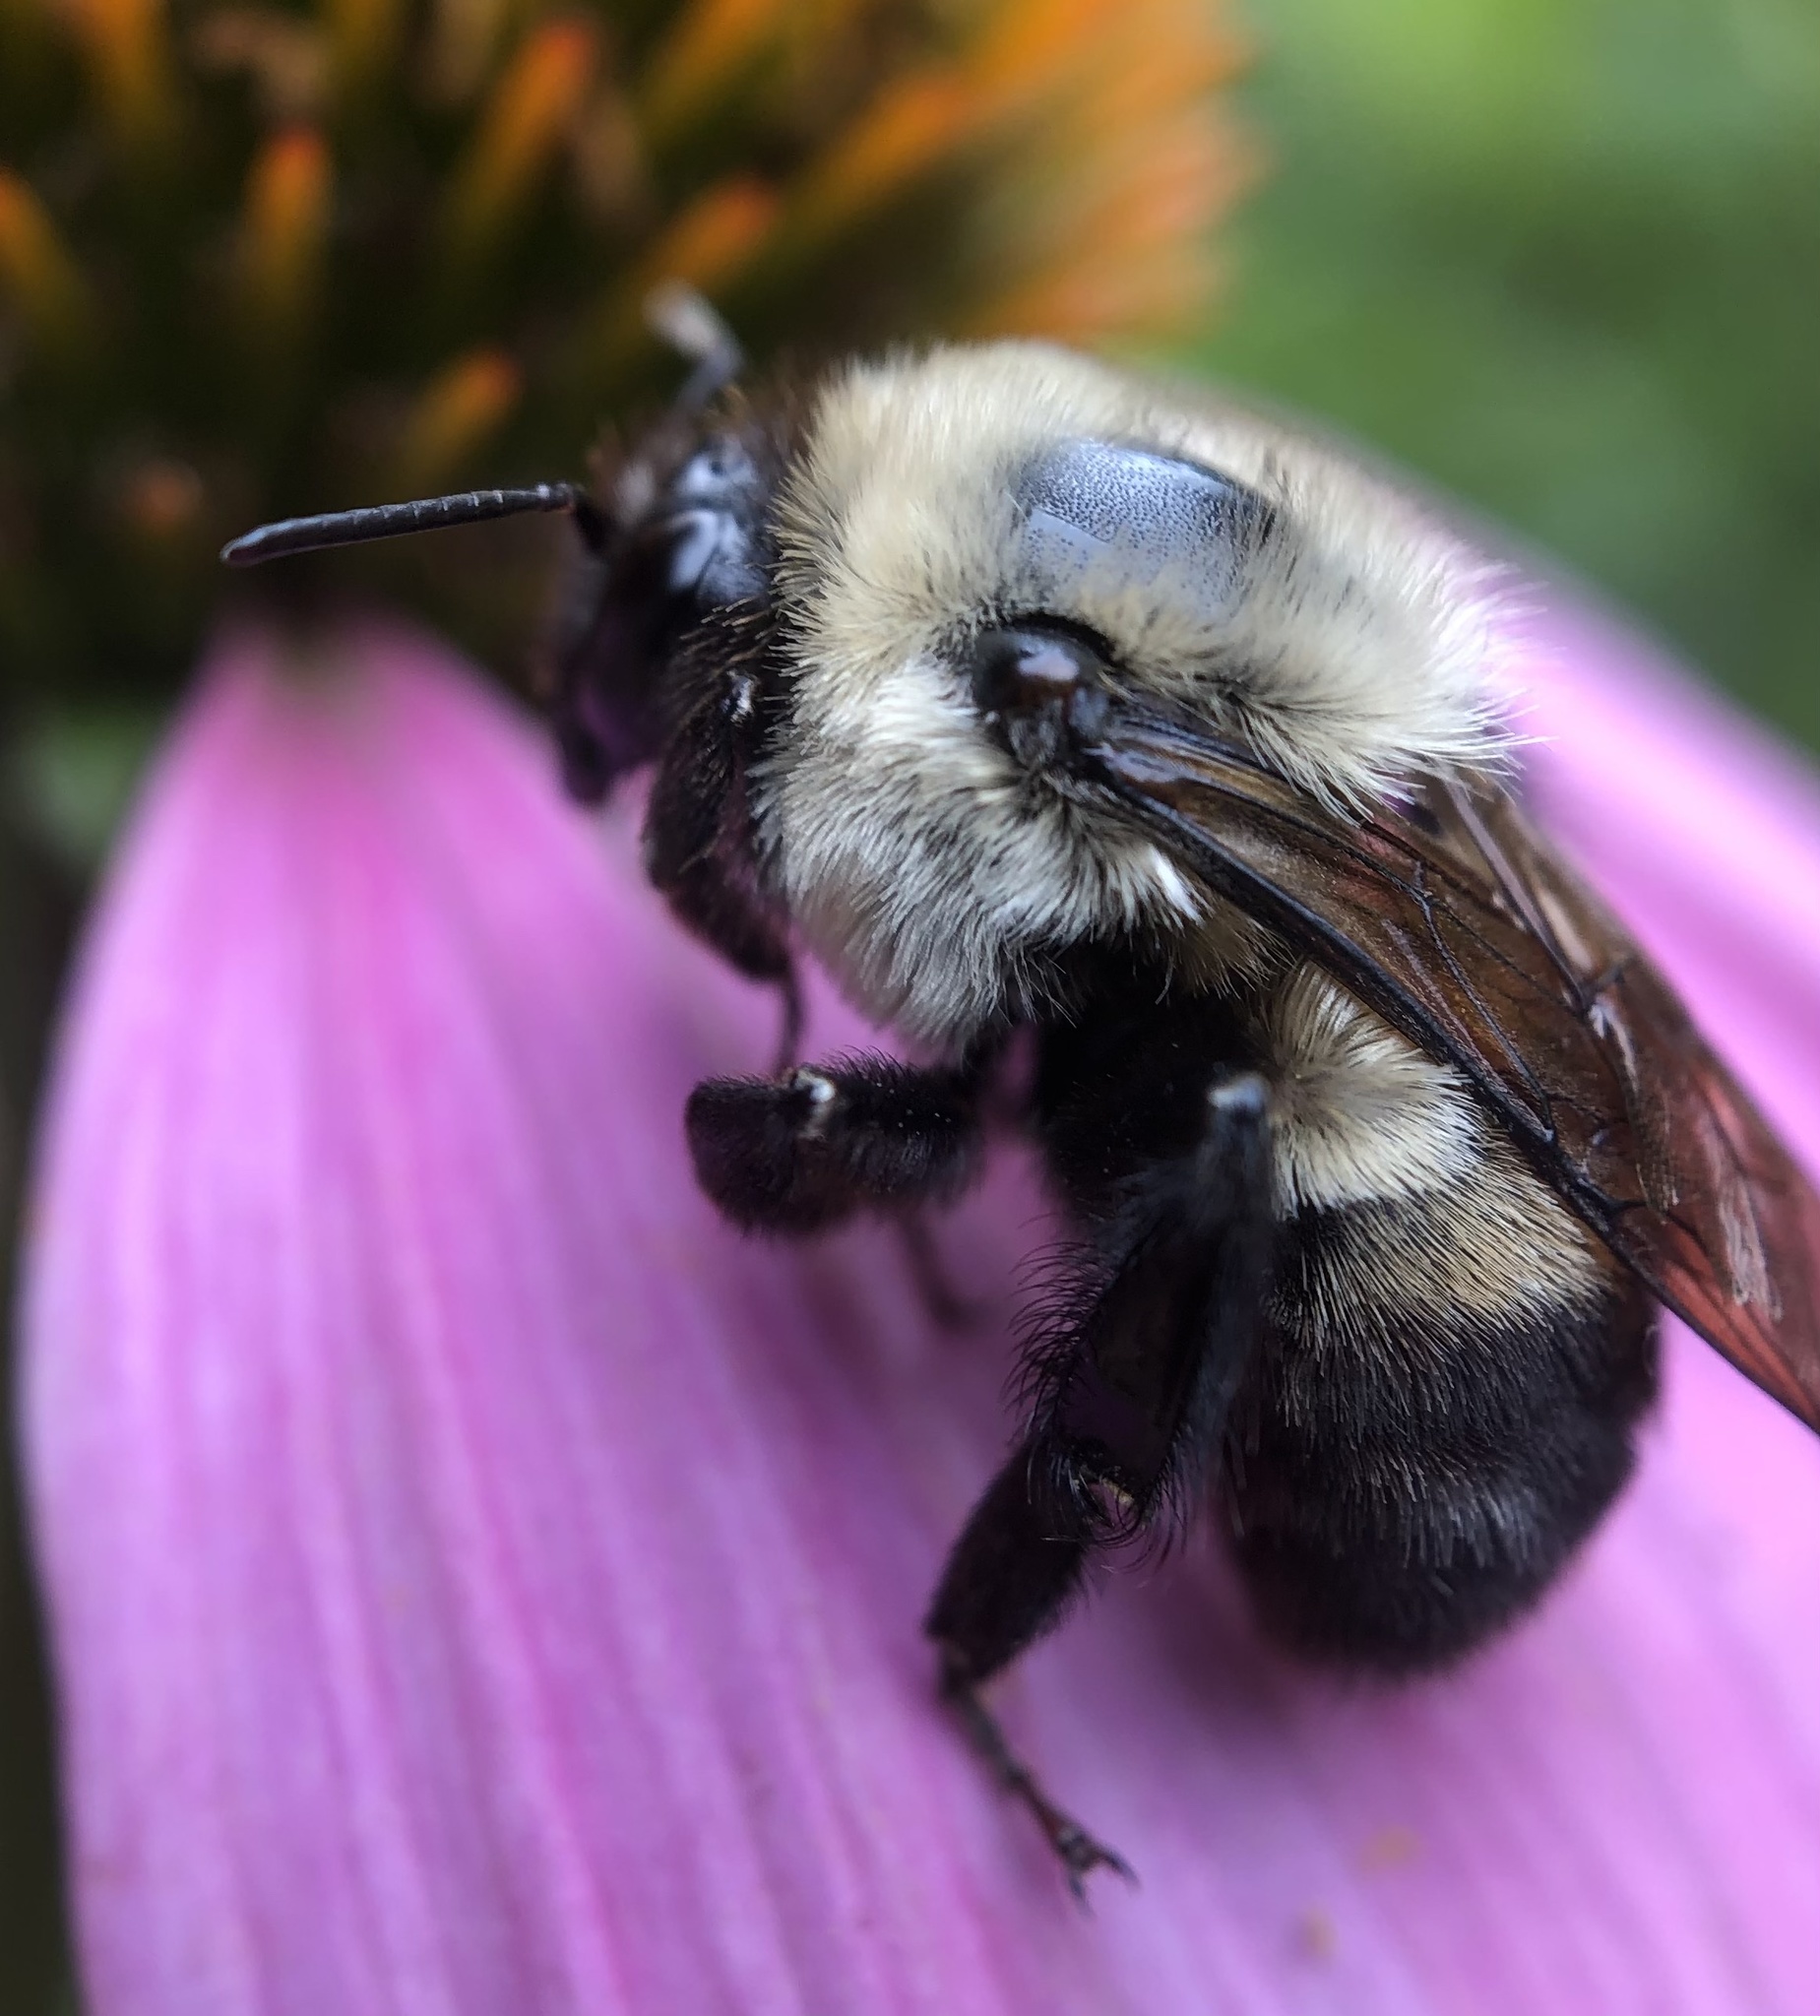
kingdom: Animalia
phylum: Arthropoda
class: Insecta
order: Hymenoptera
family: Apidae
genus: Bombus
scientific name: Bombus griseocollis
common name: Brown-belted bumble bee
